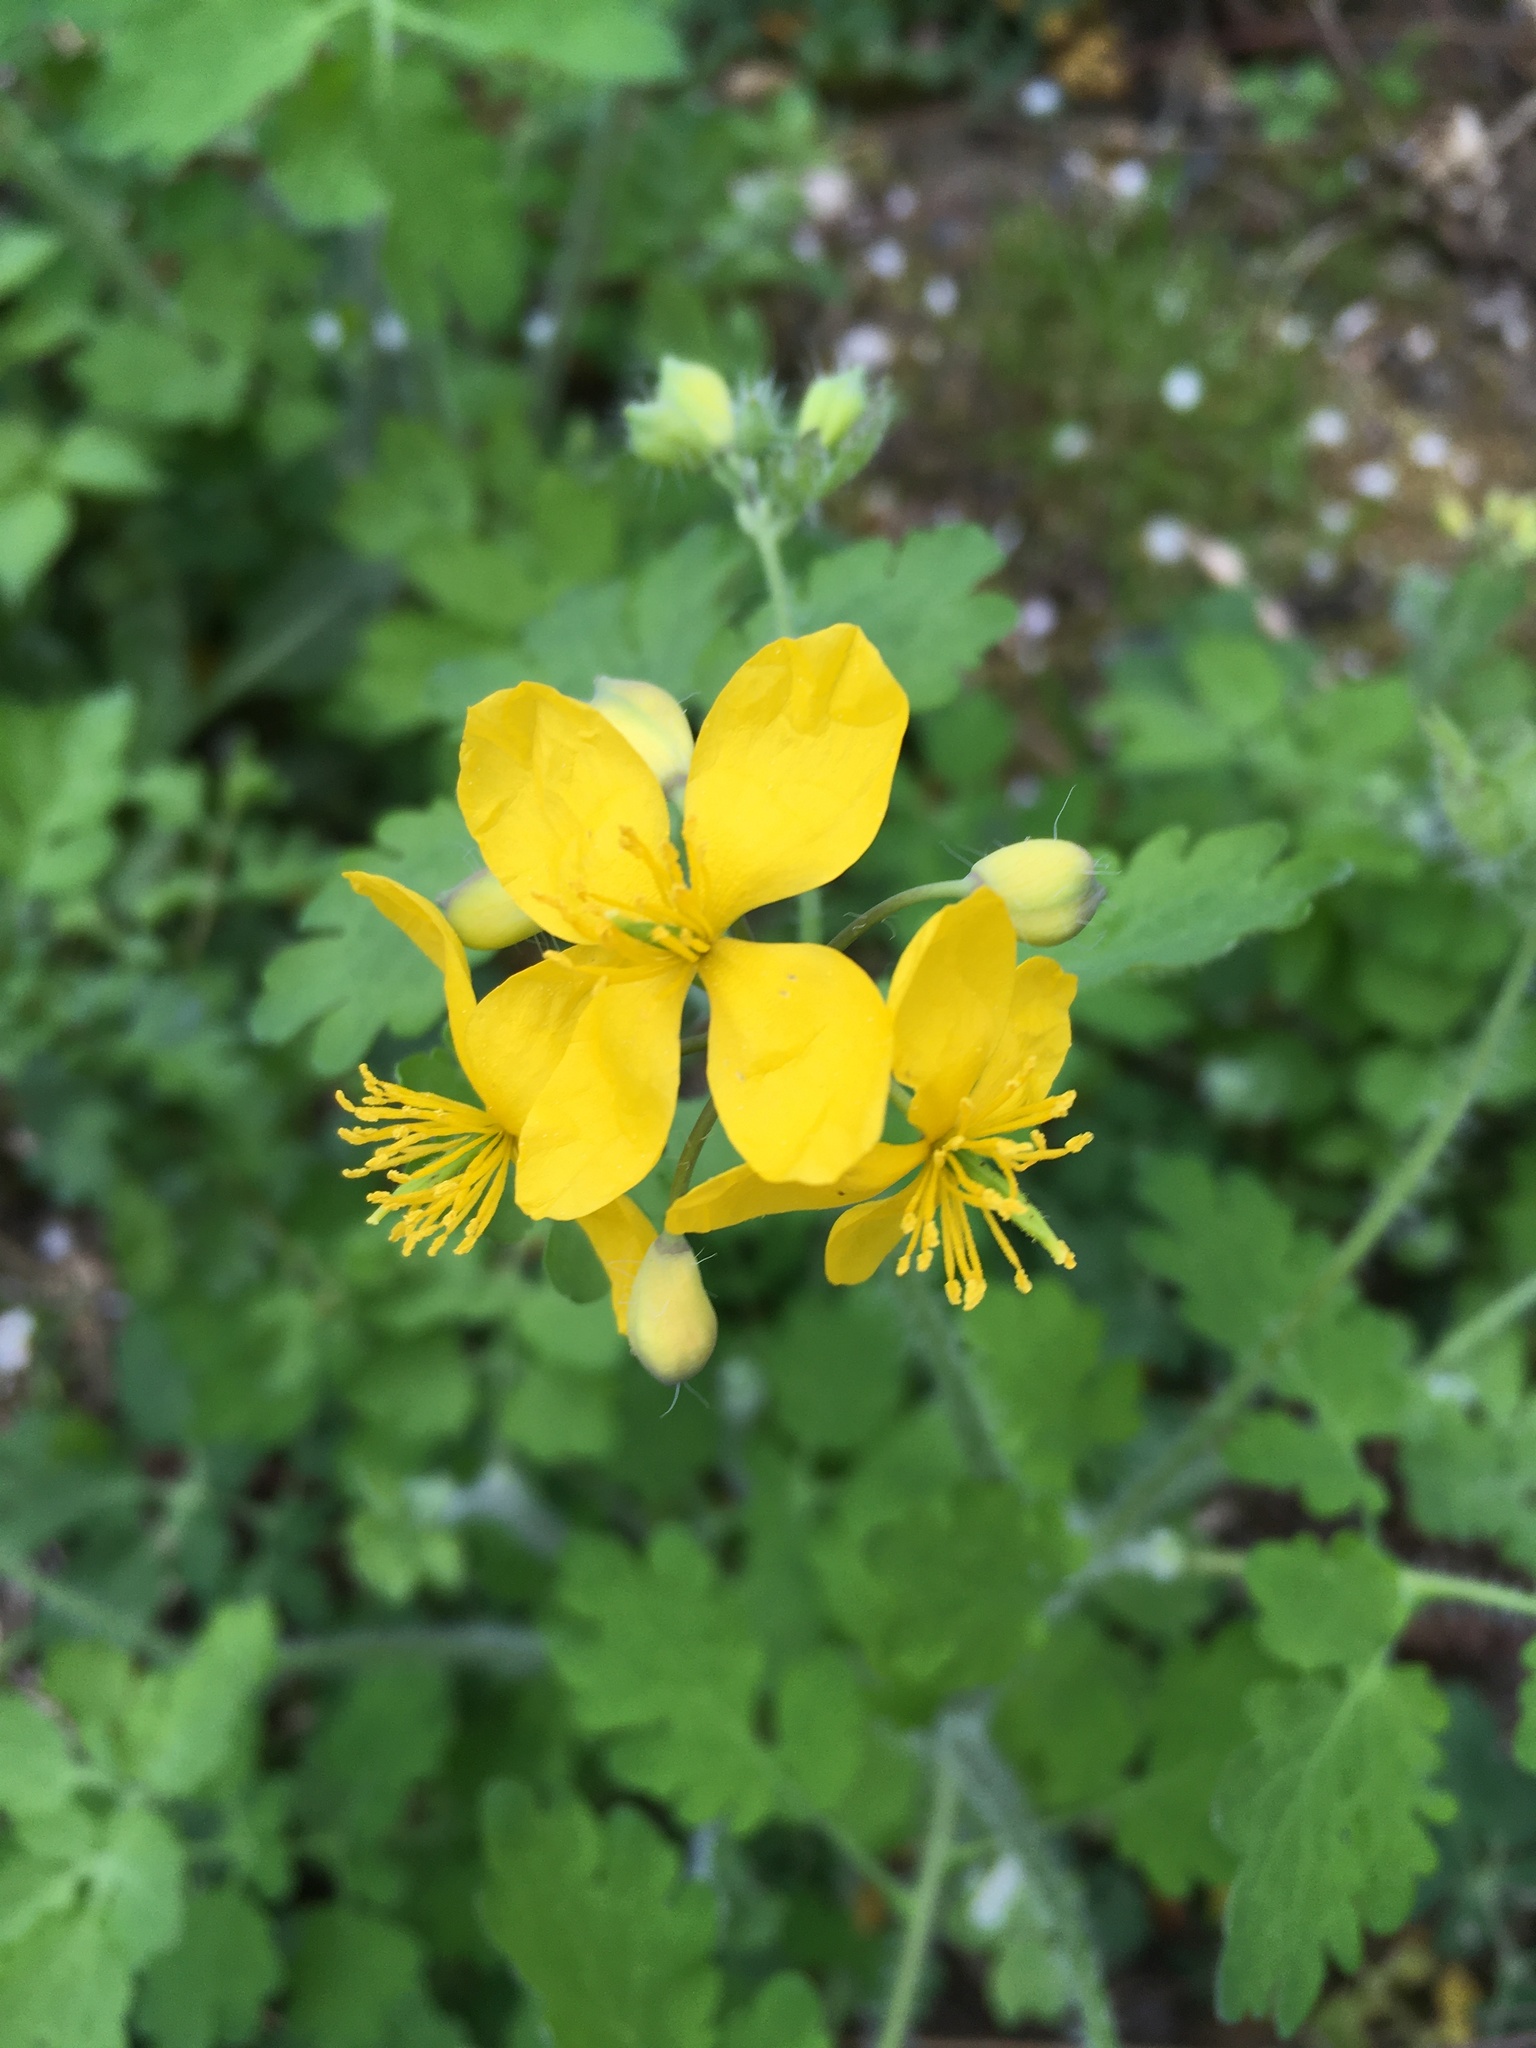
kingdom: Plantae
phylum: Tracheophyta
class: Magnoliopsida
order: Ranunculales
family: Papaveraceae
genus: Chelidonium
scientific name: Chelidonium majus
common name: Greater celandine
